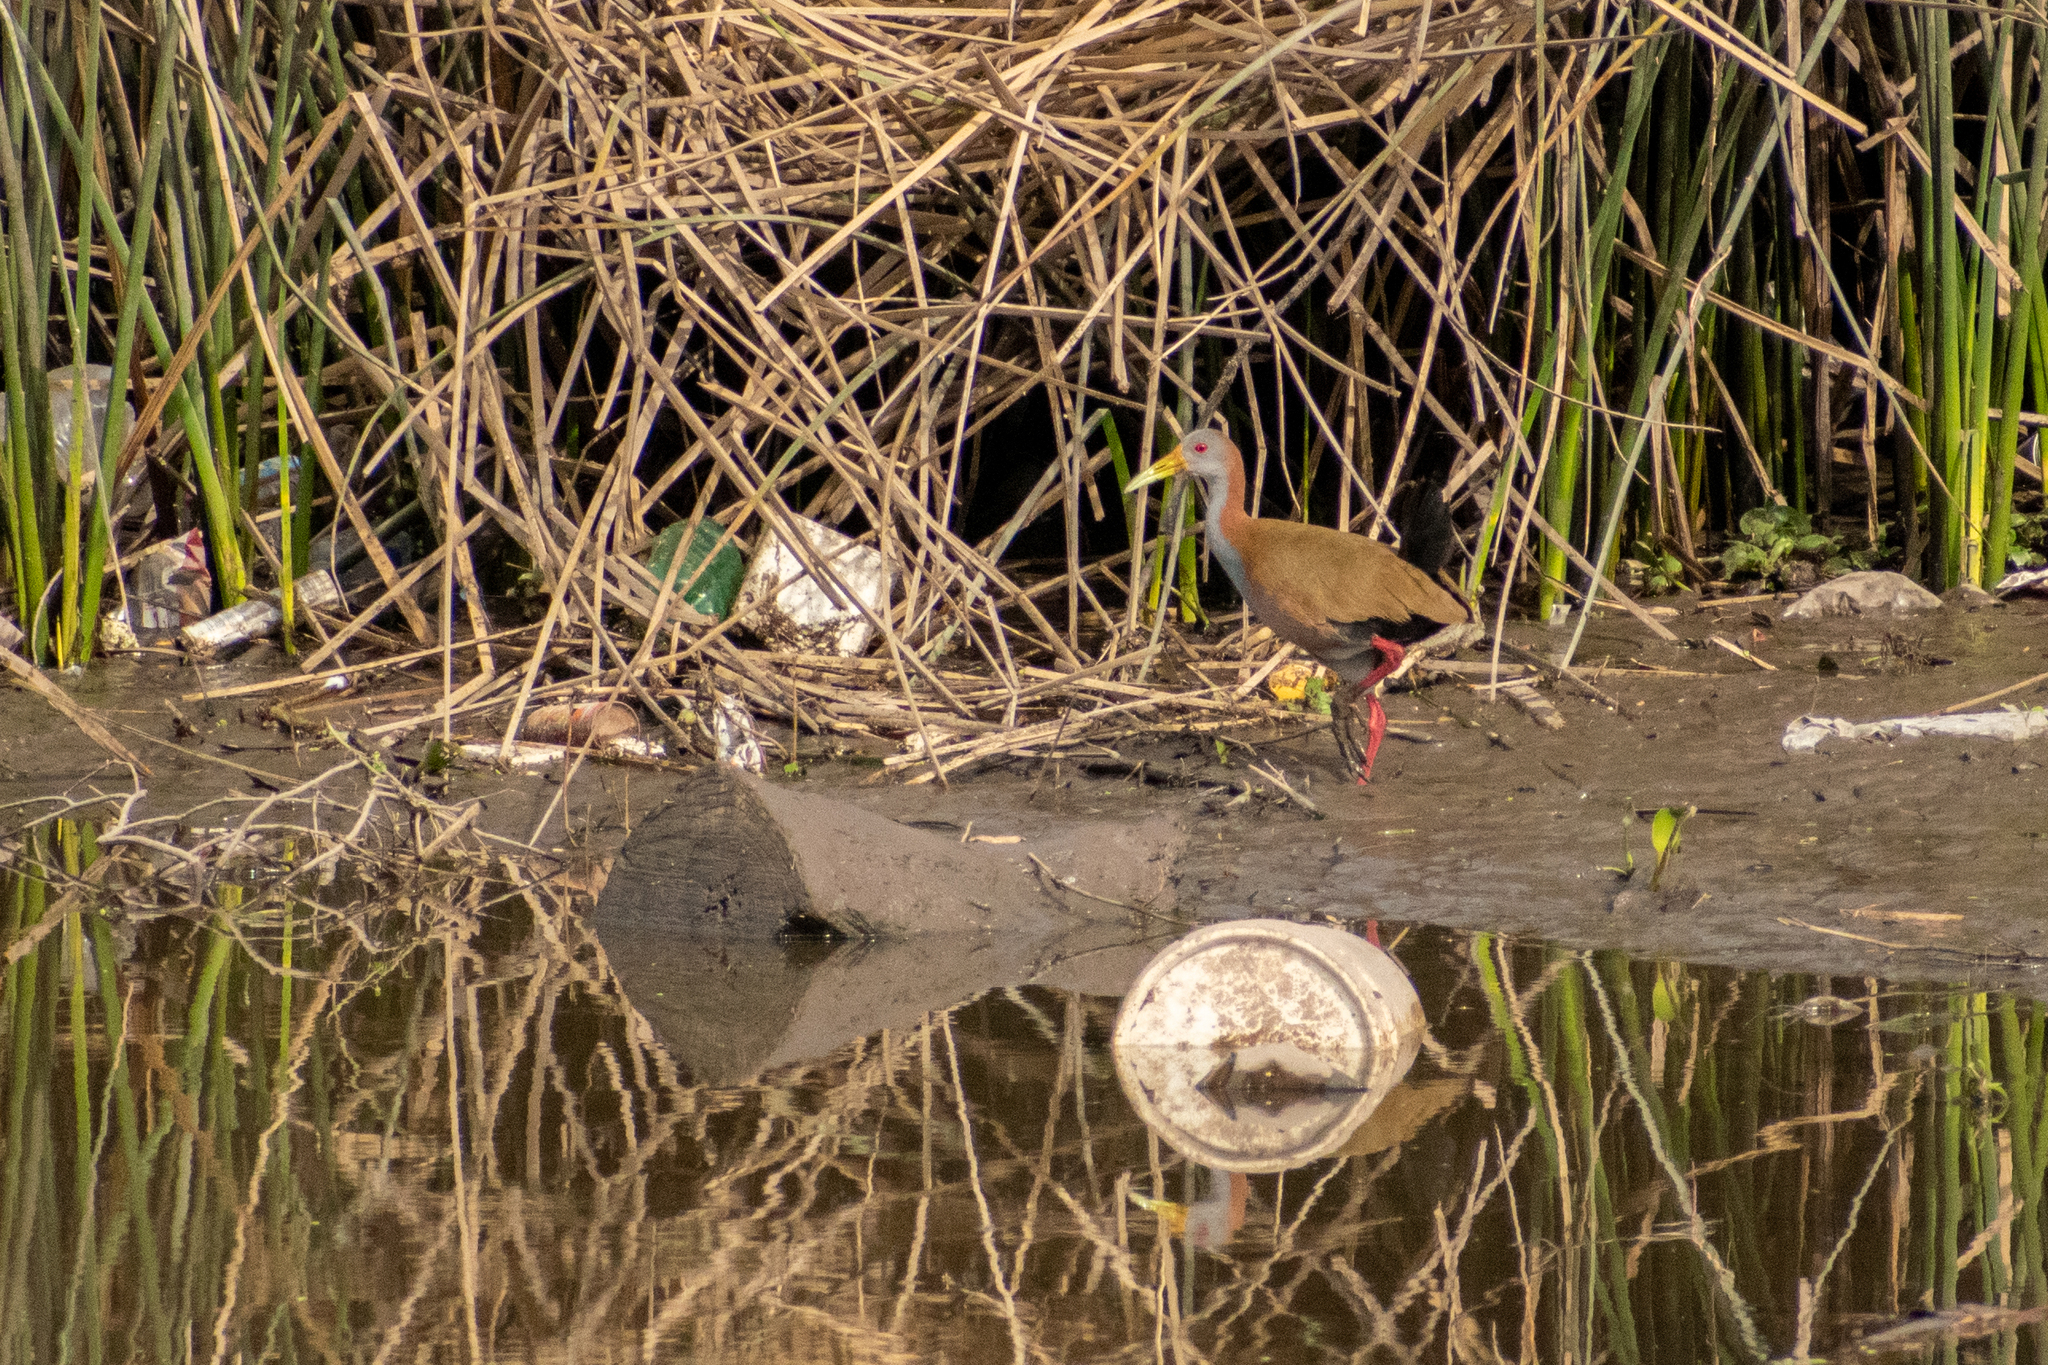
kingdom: Animalia
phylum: Chordata
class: Aves
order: Gruiformes
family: Rallidae
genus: Aramides
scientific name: Aramides ypecaha
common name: Giant wood rail
